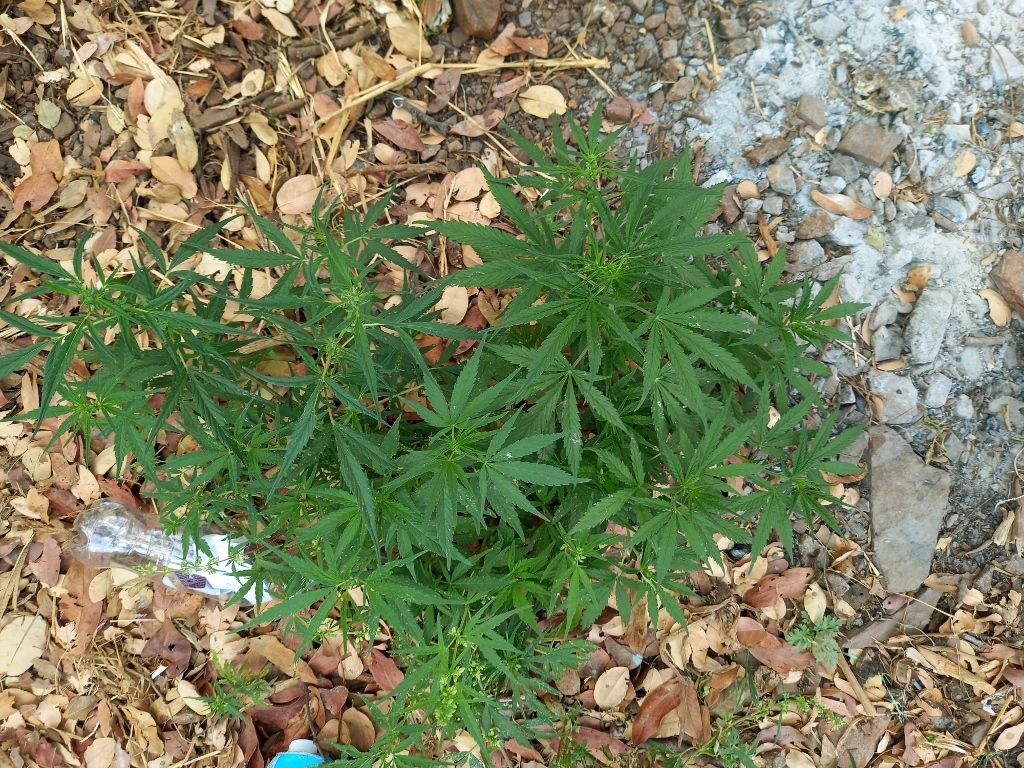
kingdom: Plantae
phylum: Tracheophyta
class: Magnoliopsida
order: Rosales
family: Cannabaceae
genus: Cannabis
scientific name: Cannabis sativa
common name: Hemp
